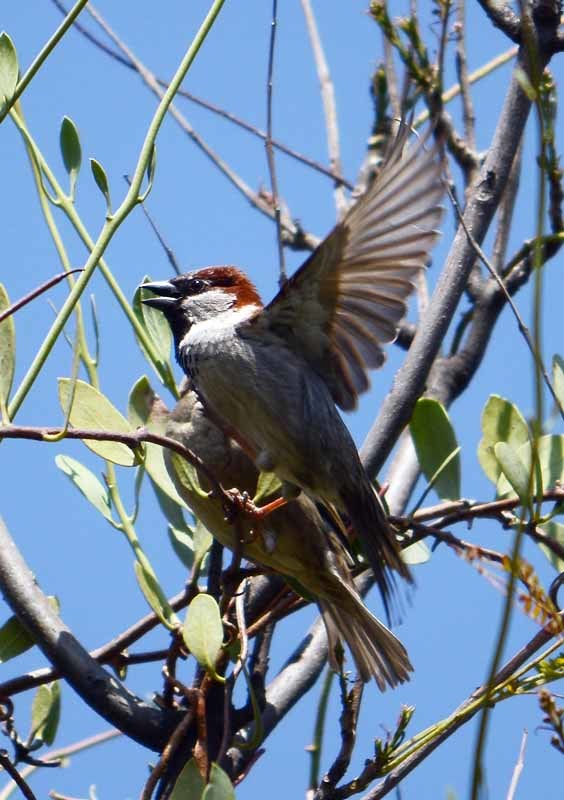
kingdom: Animalia
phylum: Chordata
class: Aves
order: Passeriformes
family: Passeridae
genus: Passer
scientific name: Passer domesticus
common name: House sparrow
